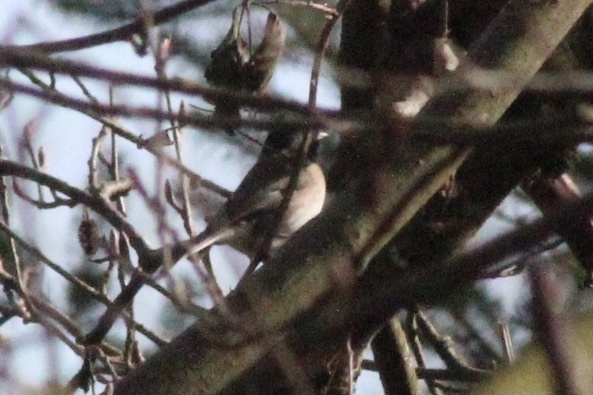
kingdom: Animalia
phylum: Chordata
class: Aves
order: Passeriformes
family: Passerellidae
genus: Junco
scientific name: Junco hyemalis
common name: Dark-eyed junco
